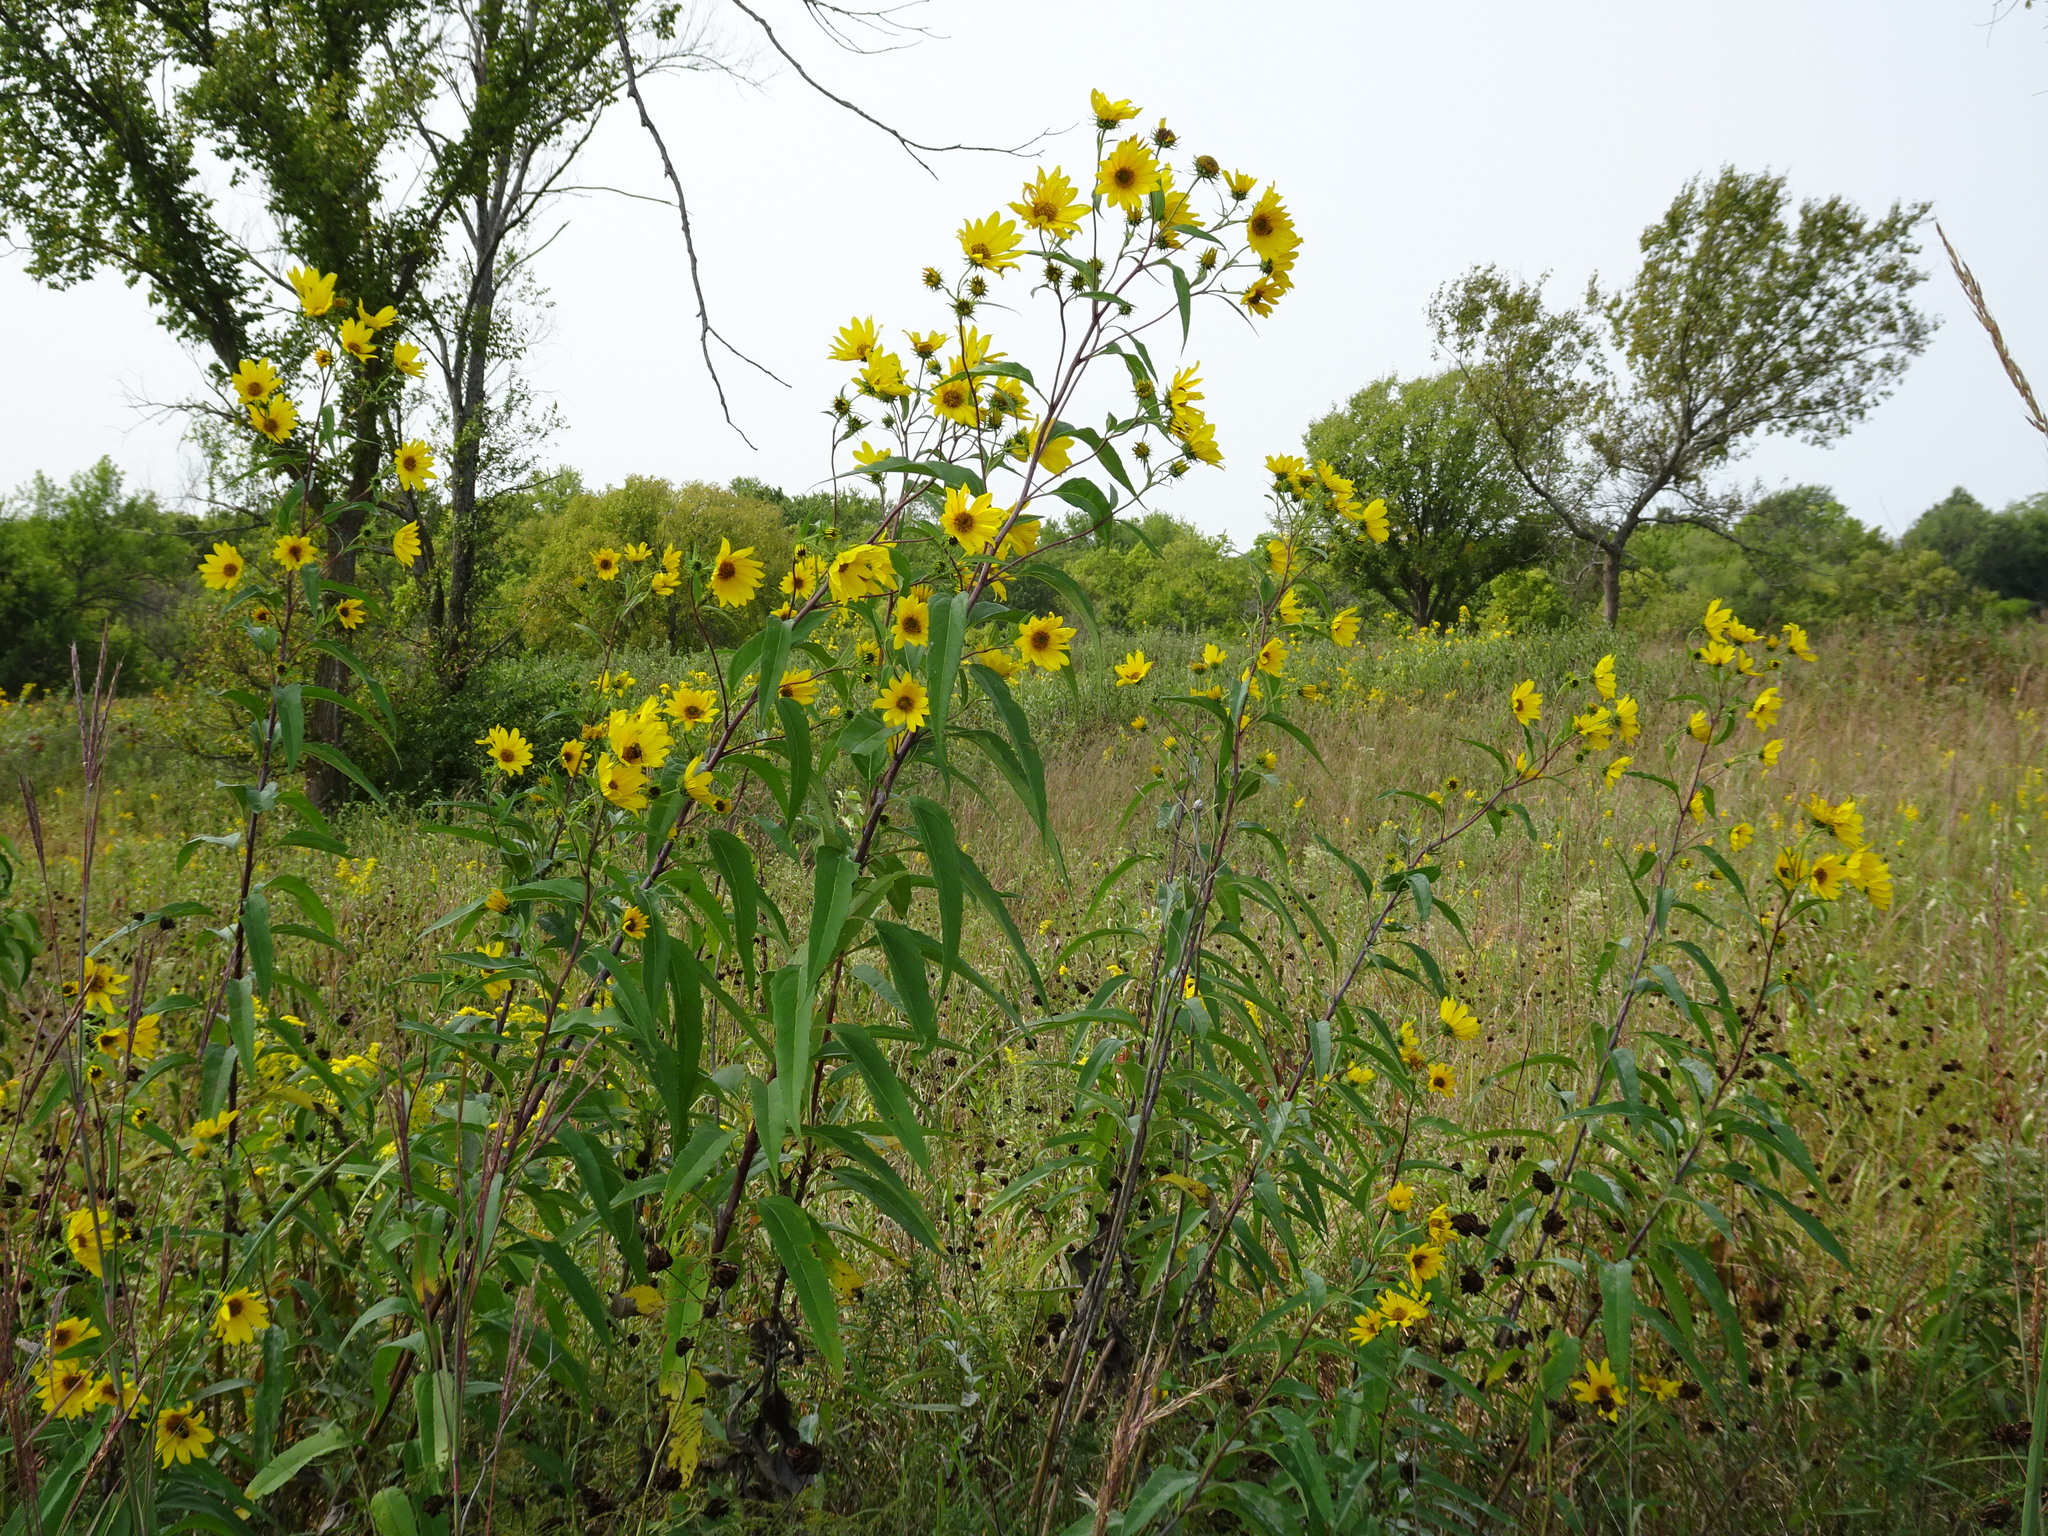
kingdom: Plantae
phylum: Tracheophyta
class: Magnoliopsida
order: Asterales
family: Asteraceae
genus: Helianthus
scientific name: Helianthus grosseserratus
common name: Sawtooth sunflower
